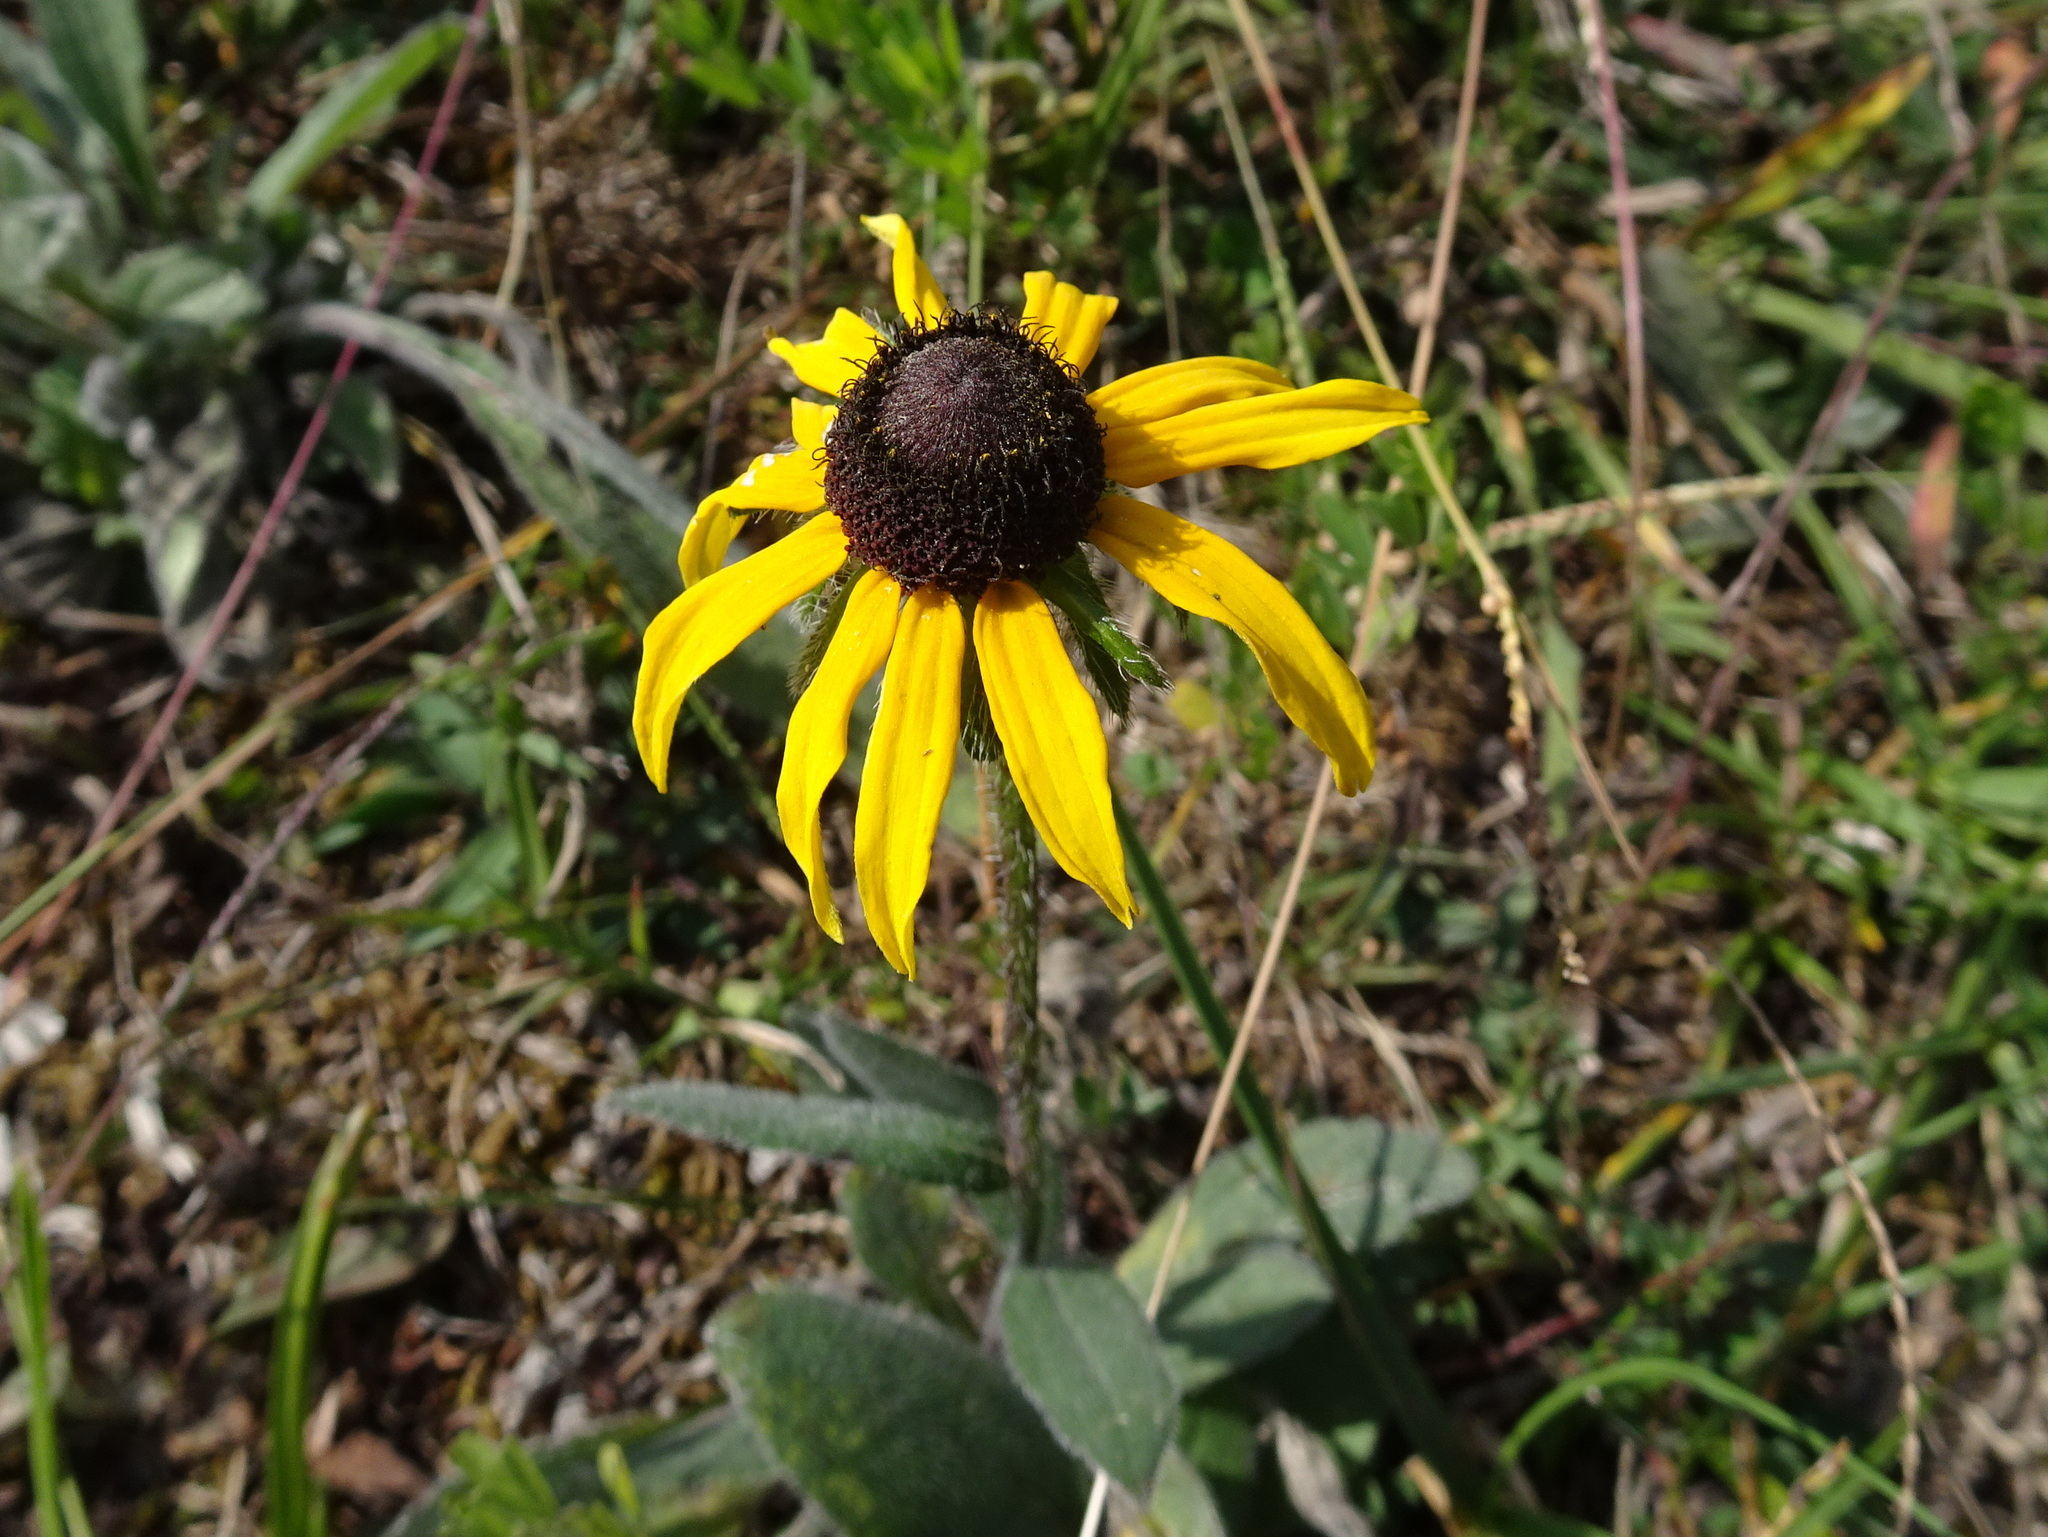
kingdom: Plantae
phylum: Tracheophyta
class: Magnoliopsida
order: Asterales
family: Asteraceae
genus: Rudbeckia
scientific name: Rudbeckia hirta
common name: Black-eyed-susan
